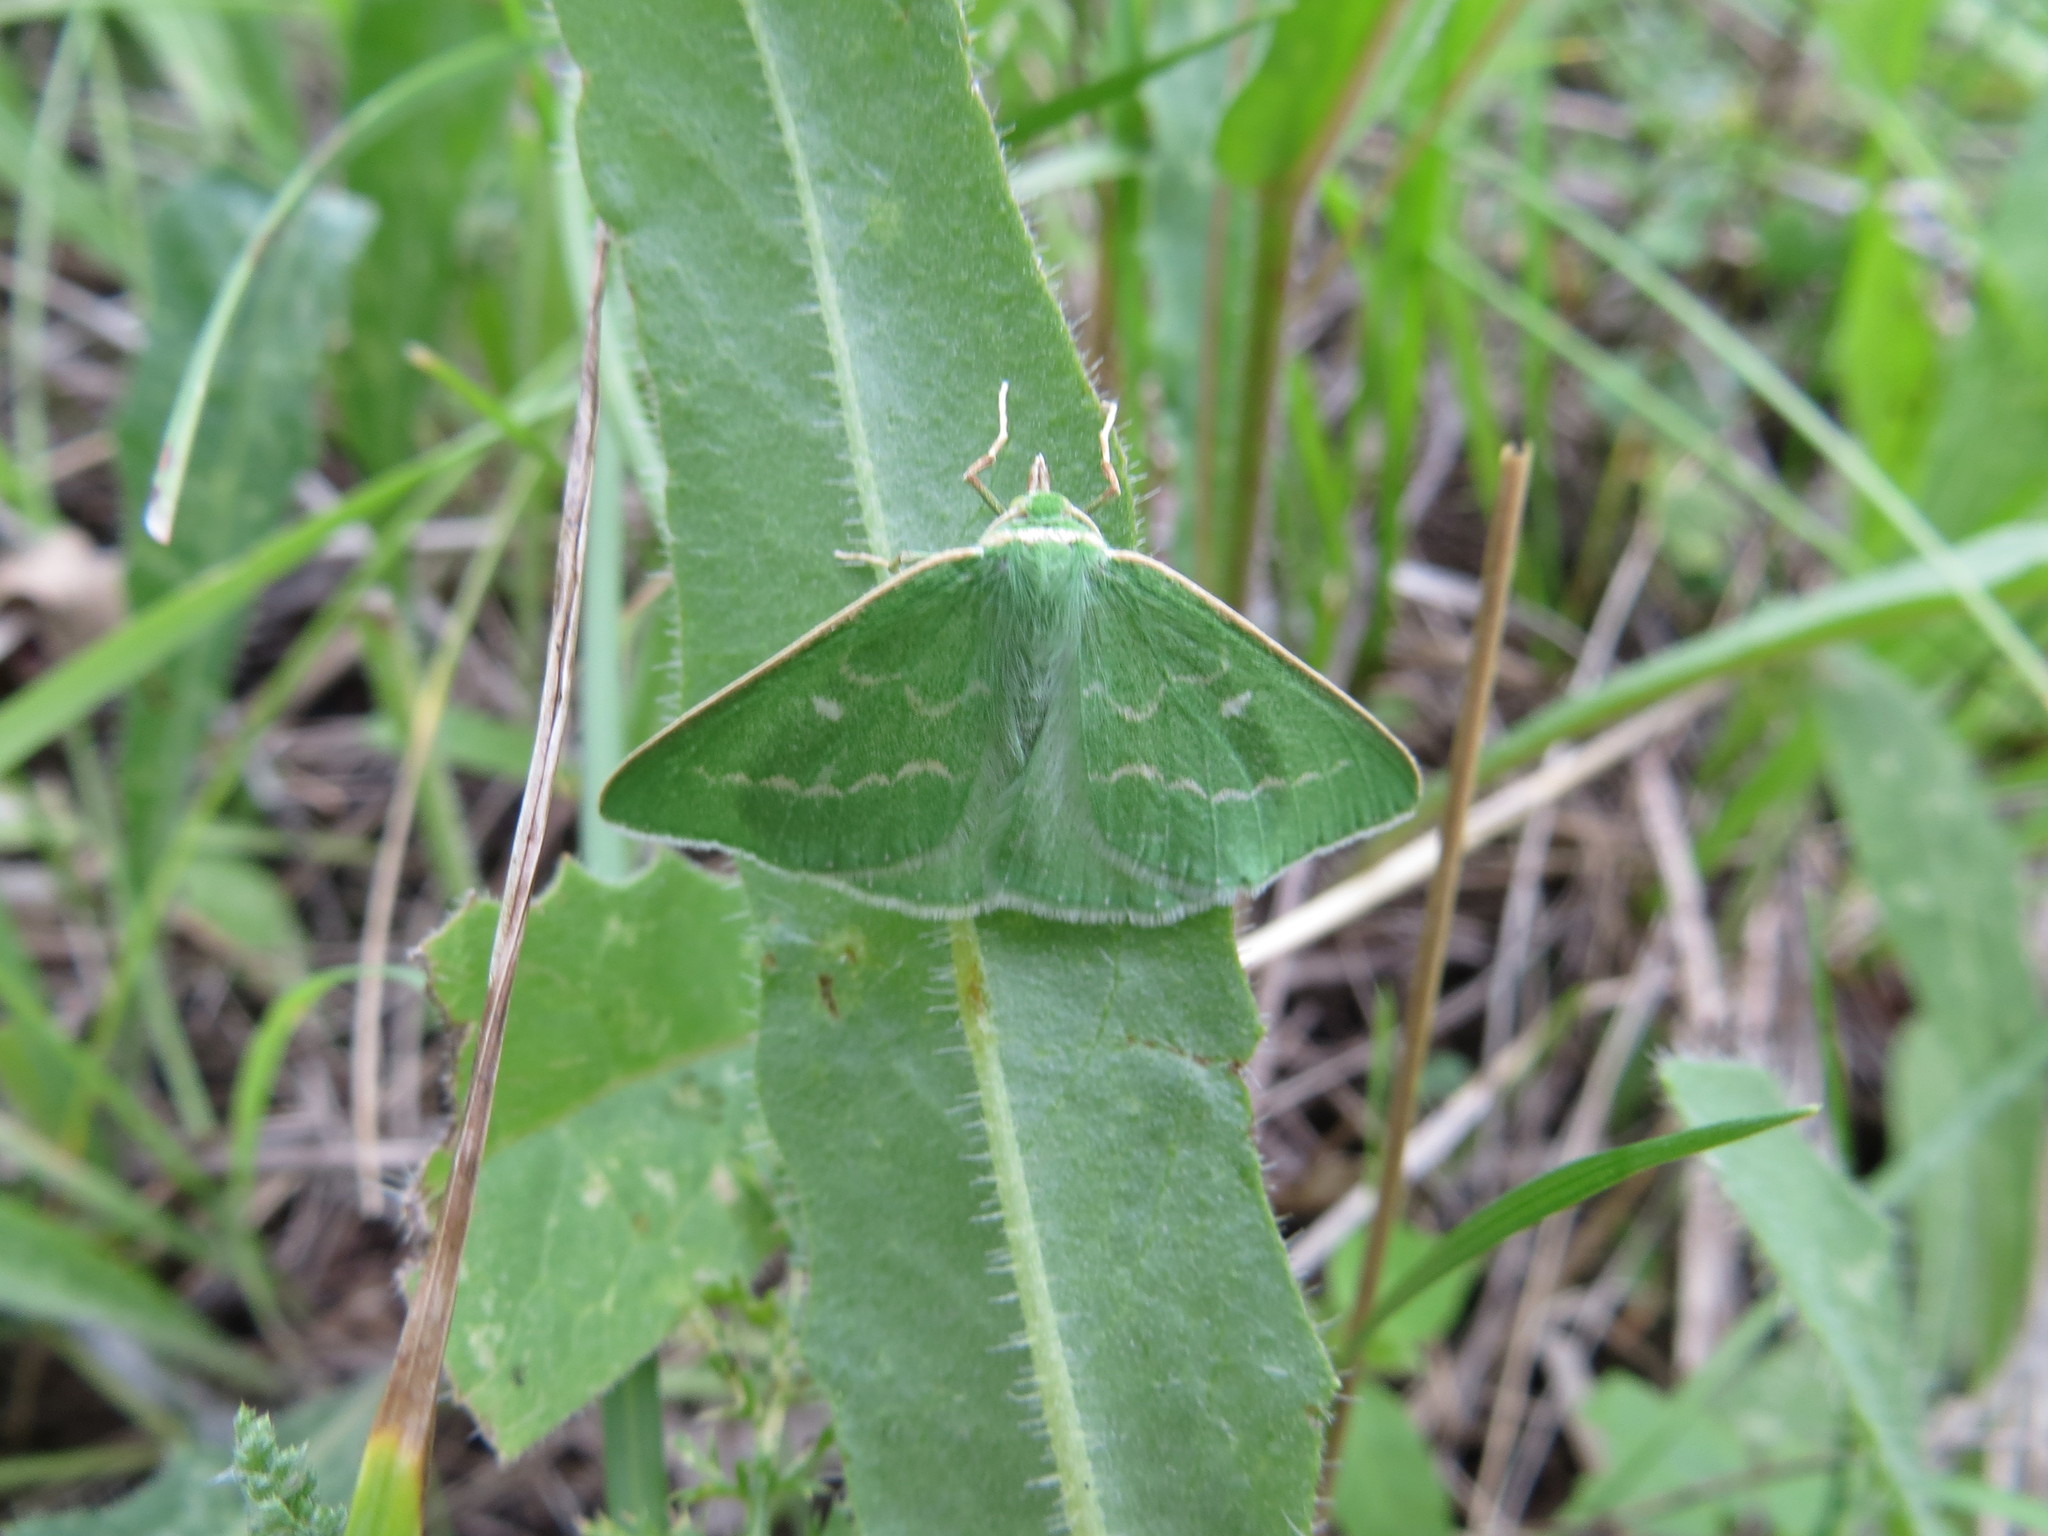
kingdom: Animalia
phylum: Arthropoda
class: Insecta
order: Lepidoptera
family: Geometridae
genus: Thetidia
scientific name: Thetidia smaragdaria
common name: Essex emerald
